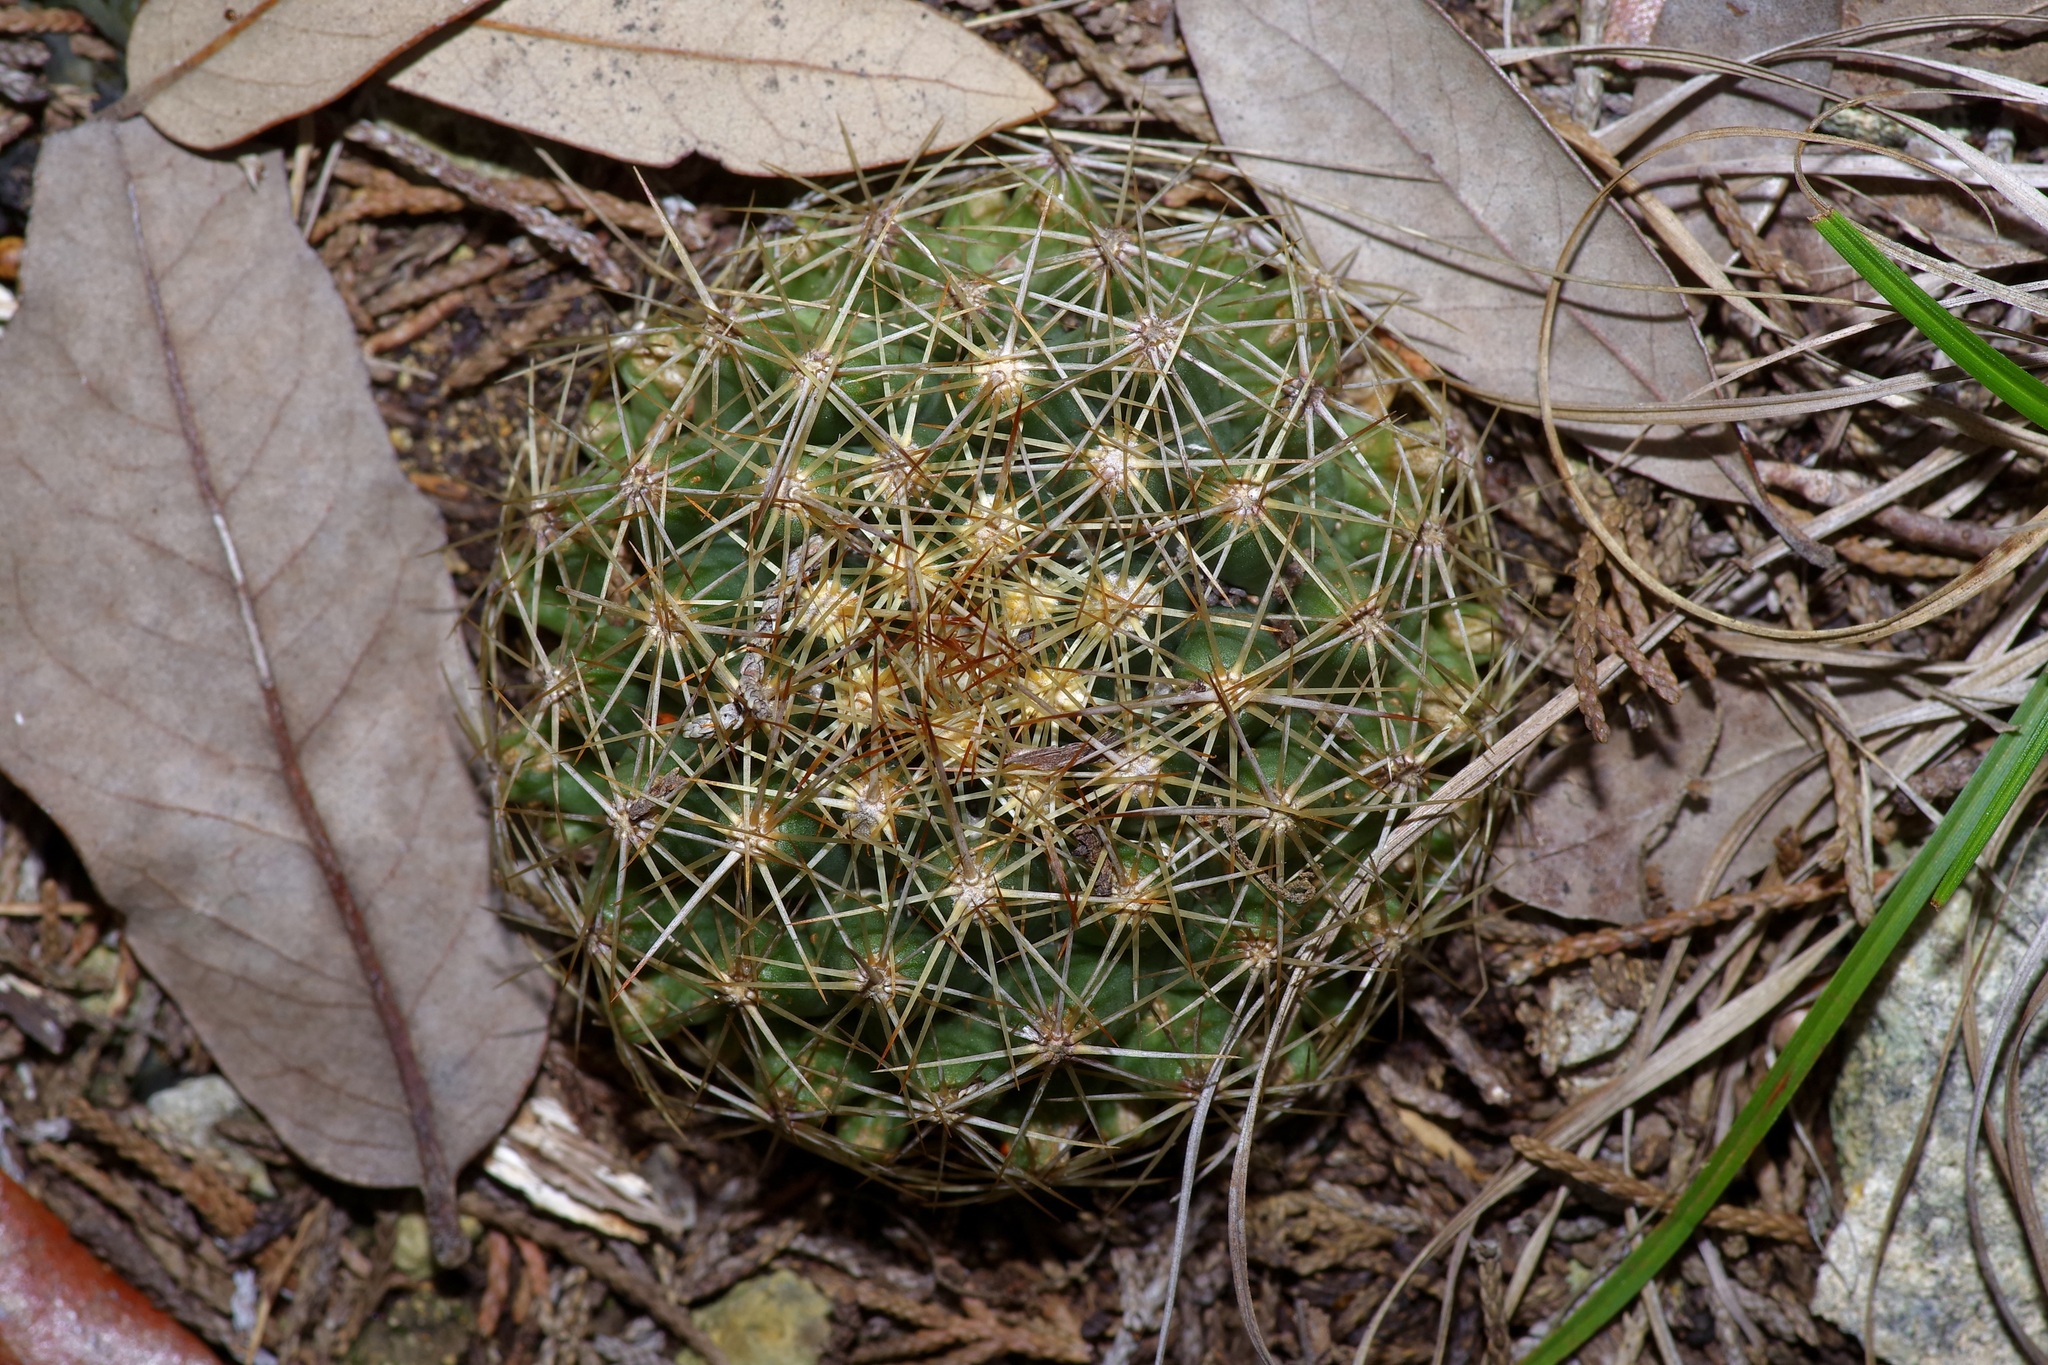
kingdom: Plantae
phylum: Tracheophyta
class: Magnoliopsida
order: Caryophyllales
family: Cactaceae
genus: Coryphantha
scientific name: Coryphantha sulcata
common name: Finger cactus
